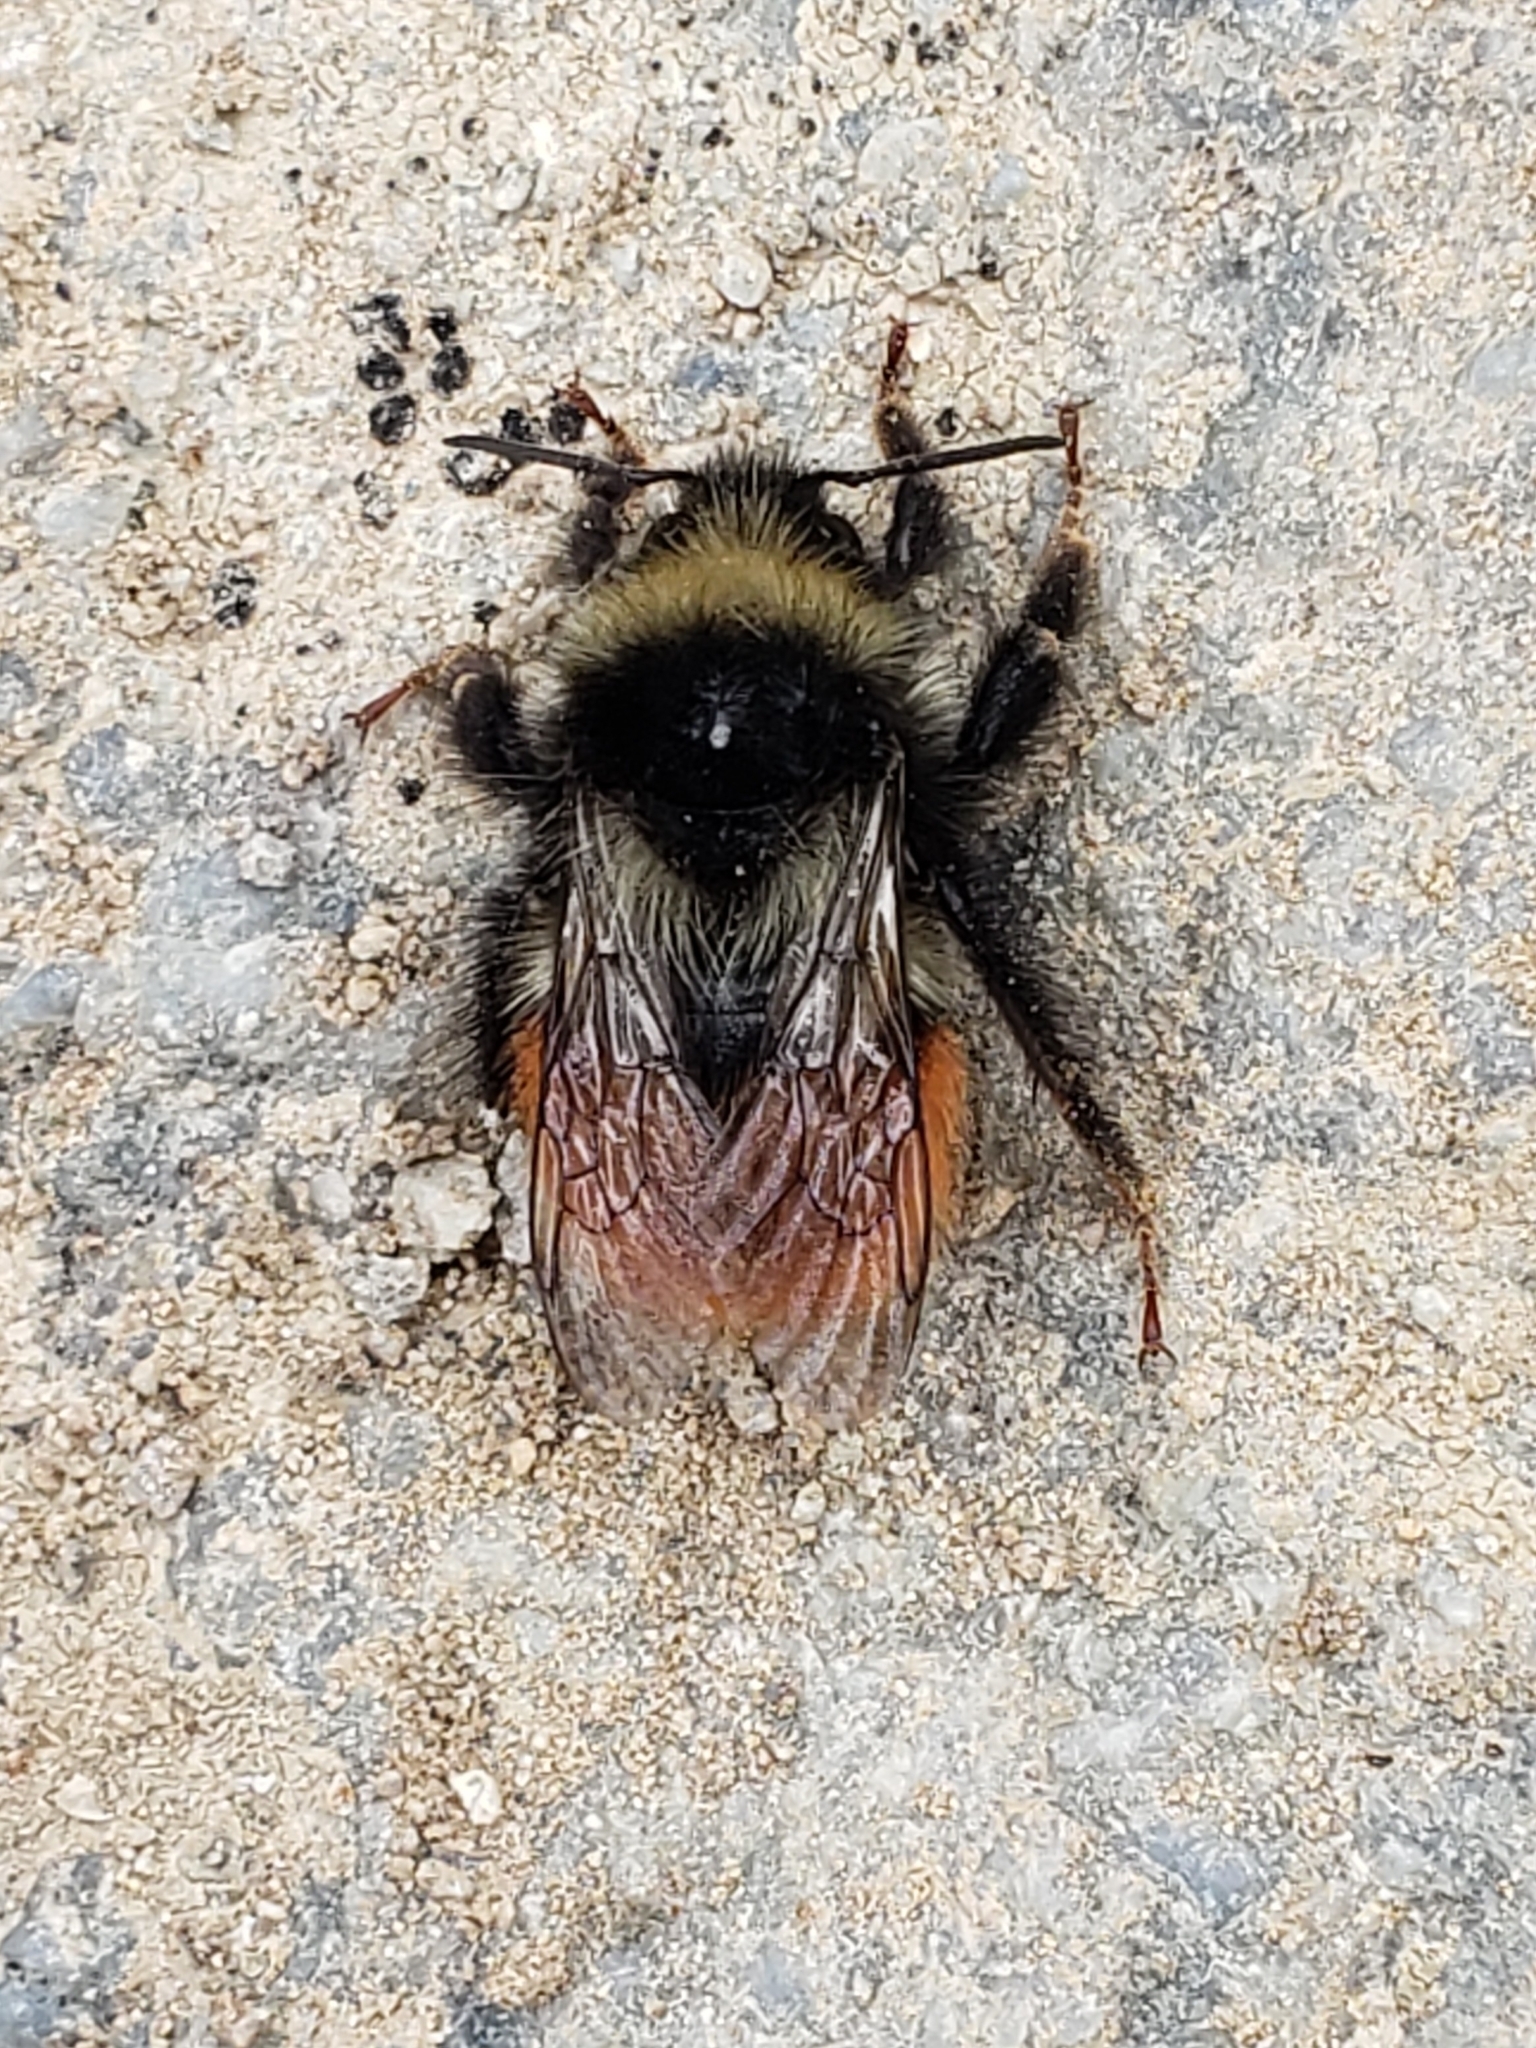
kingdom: Animalia
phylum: Arthropoda
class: Insecta
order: Hymenoptera
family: Apidae
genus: Bombus
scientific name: Bombus monticola
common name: Bilberry humble-bee
